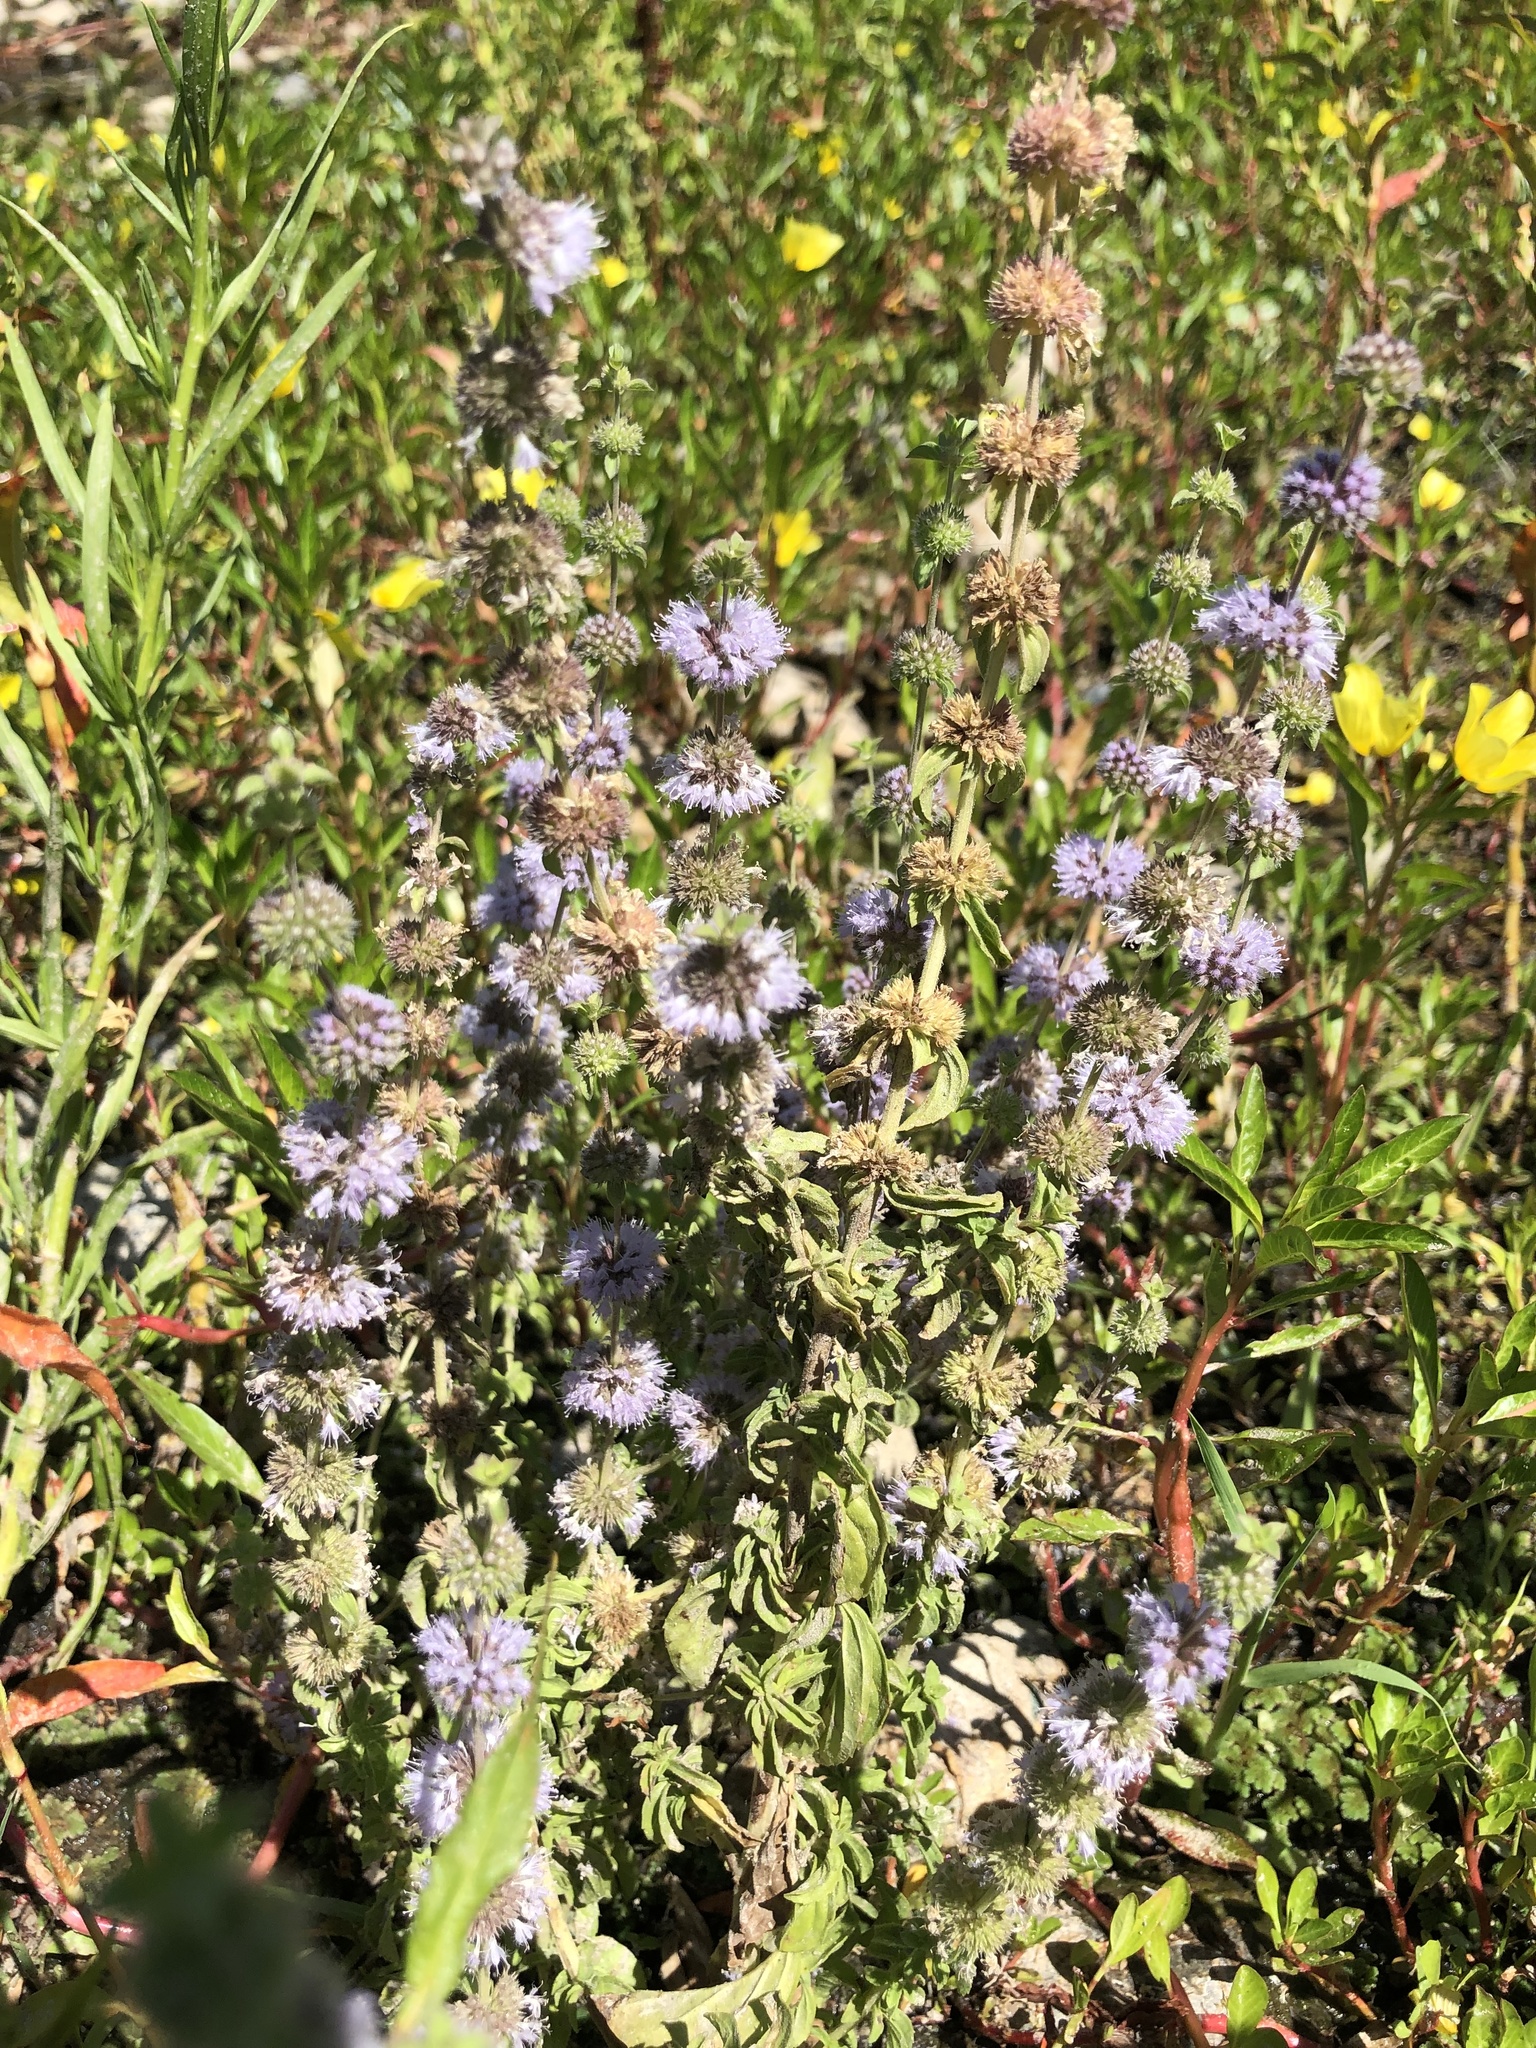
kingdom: Plantae
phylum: Tracheophyta
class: Magnoliopsida
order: Lamiales
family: Lamiaceae
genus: Mentha
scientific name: Mentha pulegium
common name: Pennyroyal
